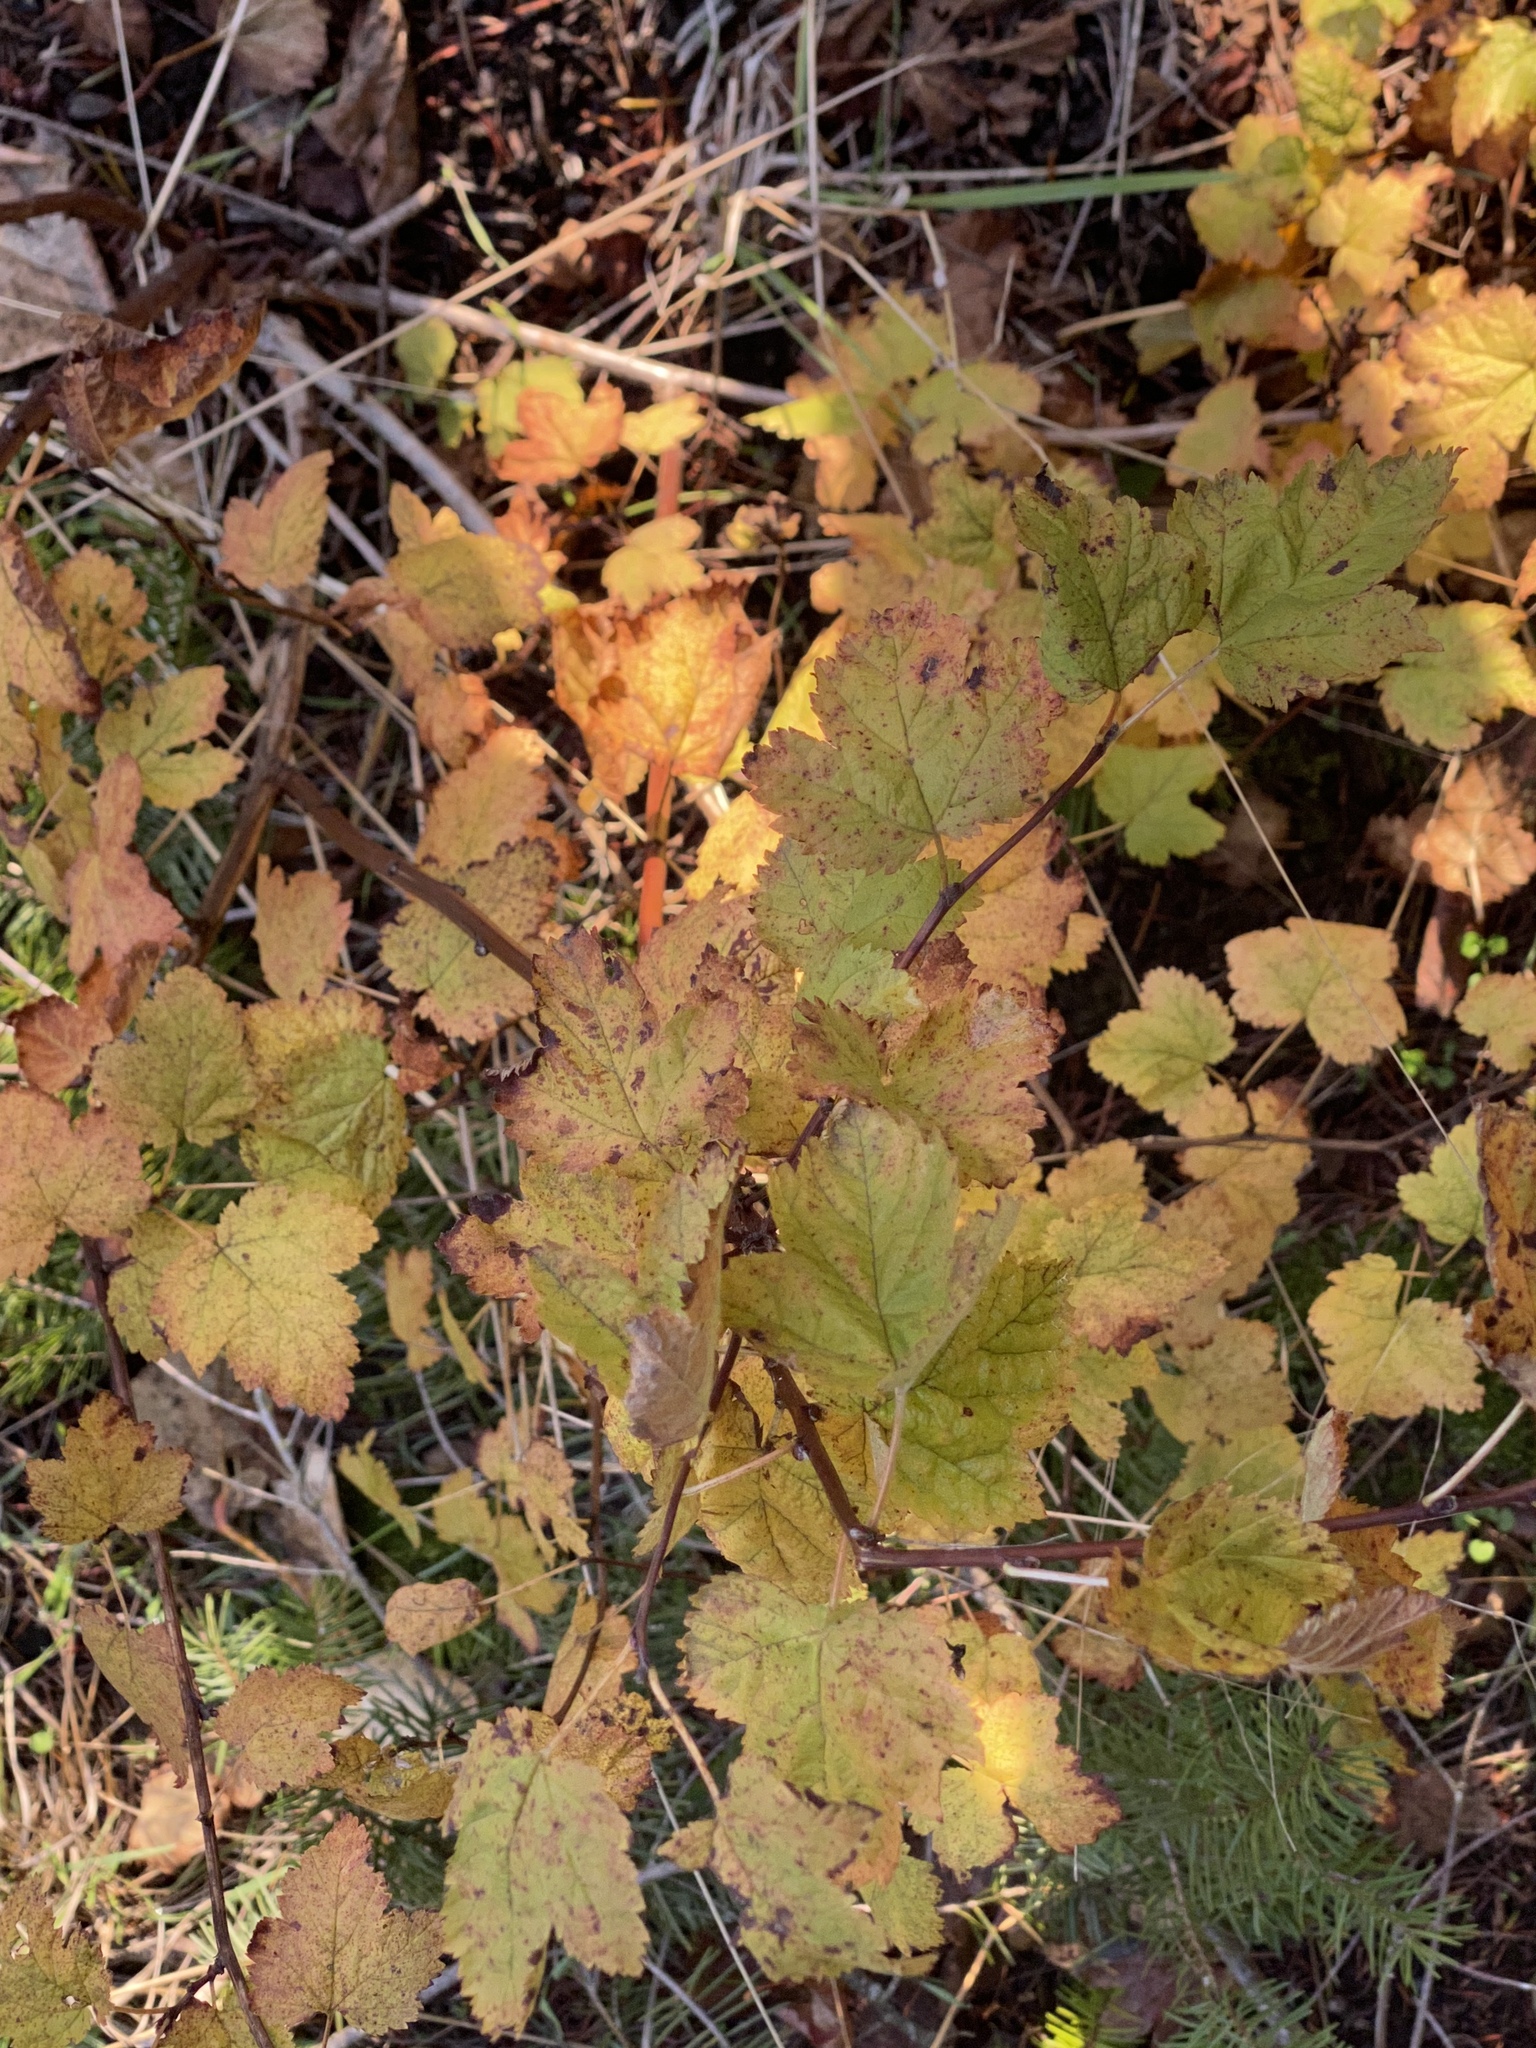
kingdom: Plantae
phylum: Tracheophyta
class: Magnoliopsida
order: Rosales
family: Rosaceae
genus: Physocarpus
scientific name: Physocarpus capitatus
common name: Pacific ninebark
